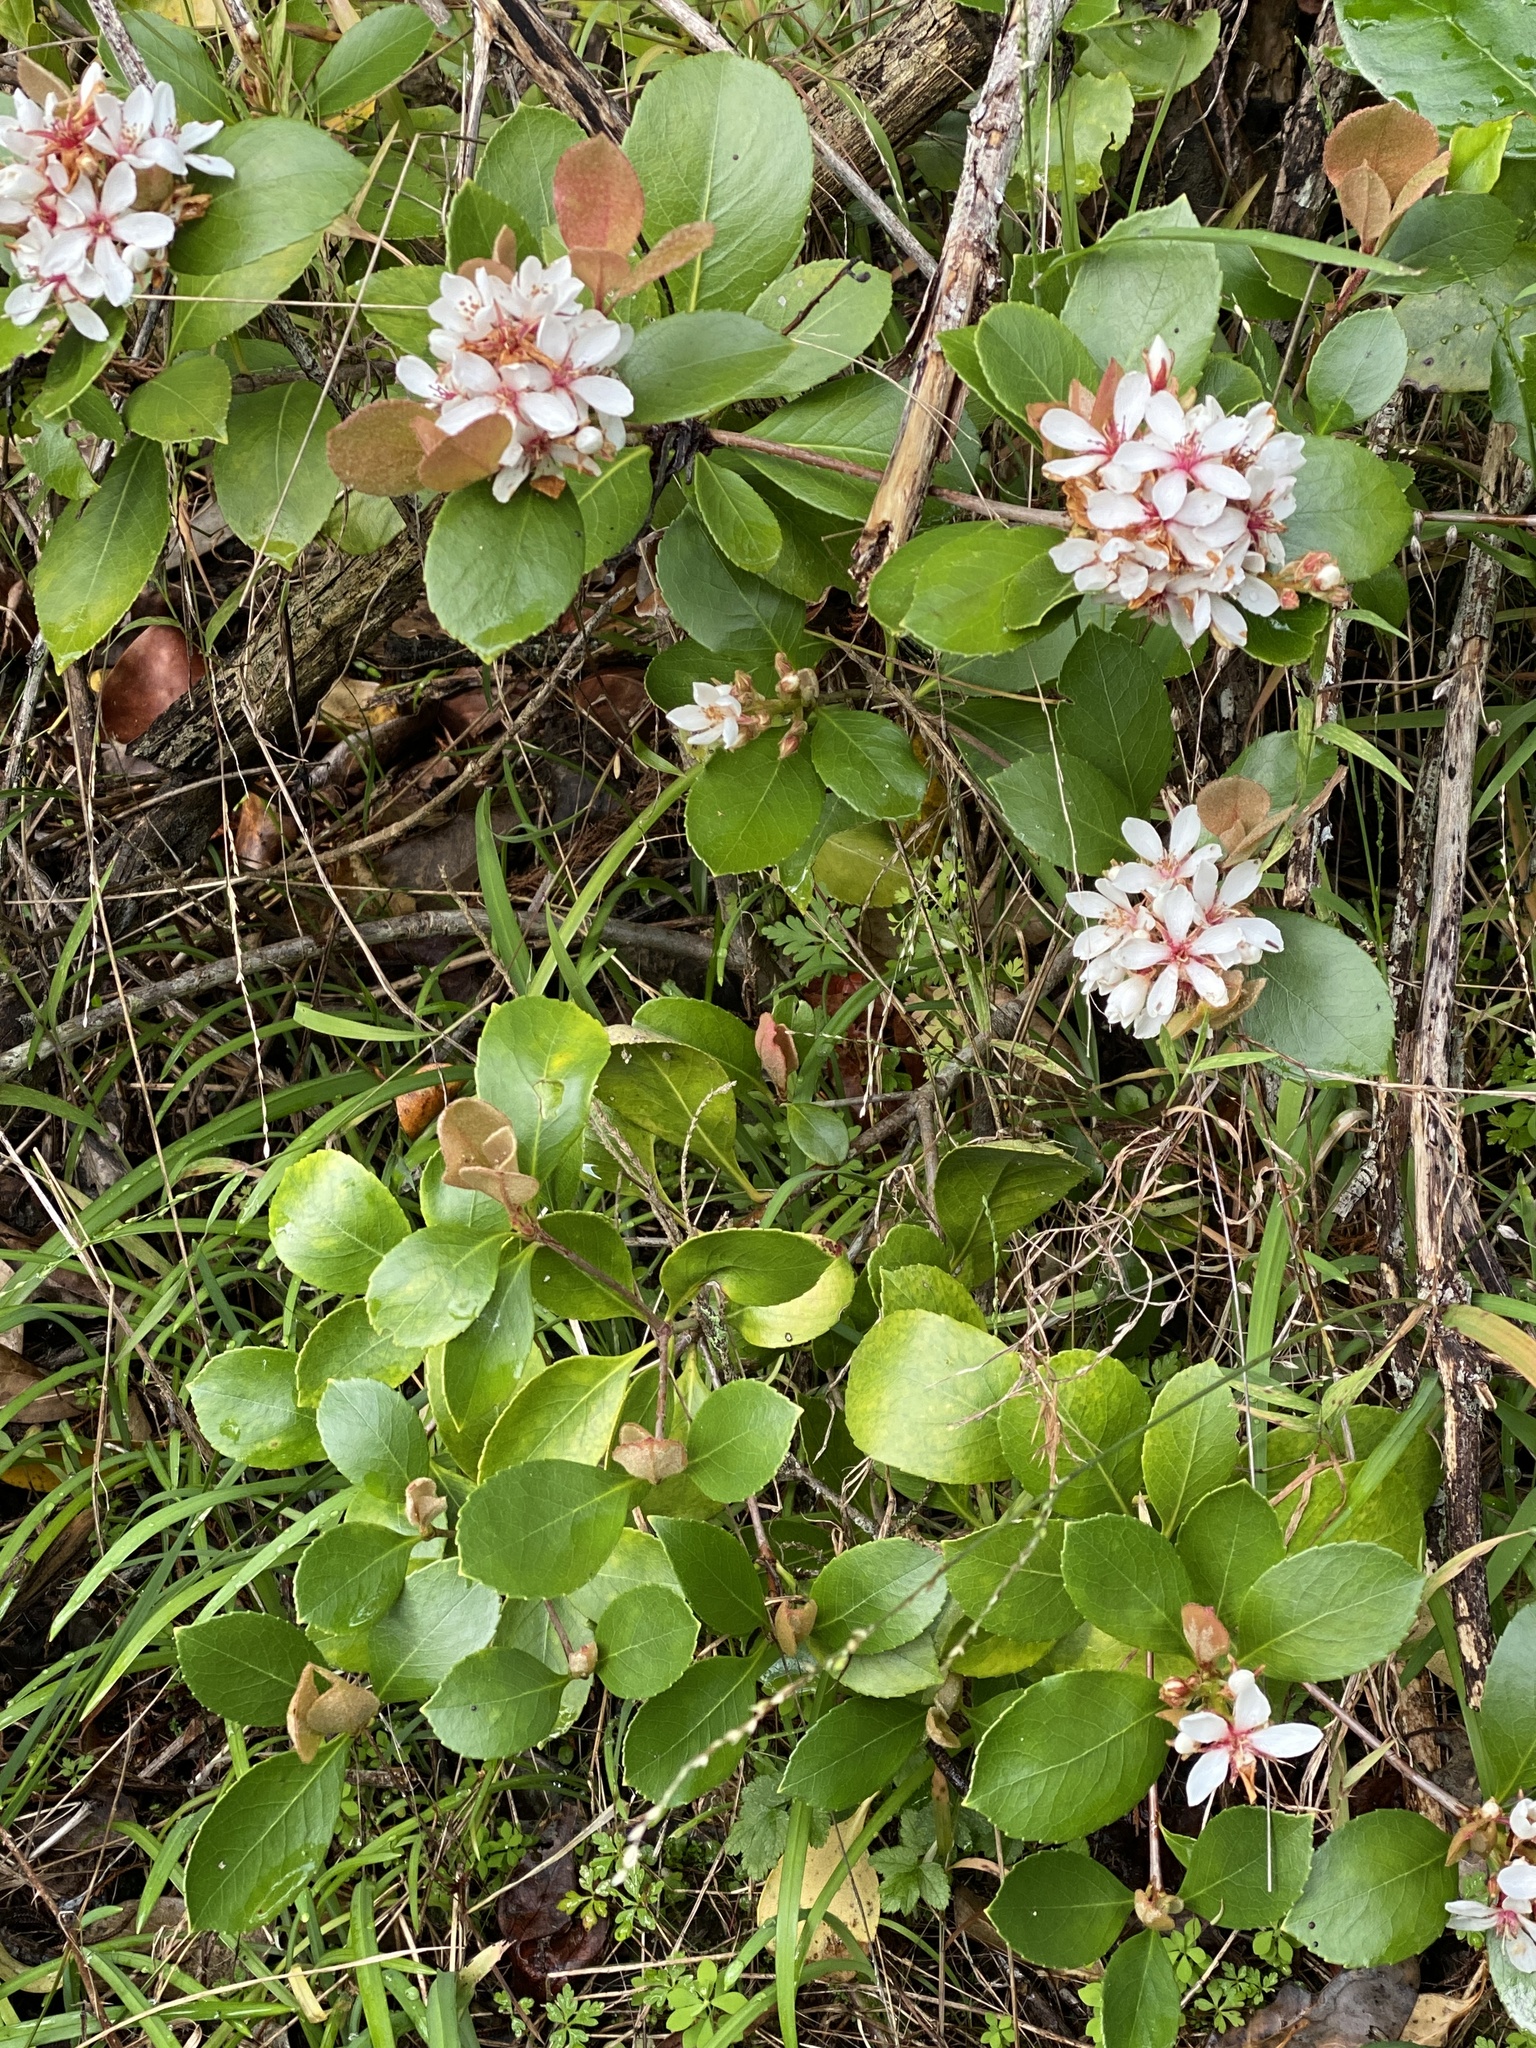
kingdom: Plantae
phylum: Tracheophyta
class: Magnoliopsida
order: Rosales
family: Rosaceae
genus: Rhaphiolepis
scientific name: Rhaphiolepis indica
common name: India-hawthorn
